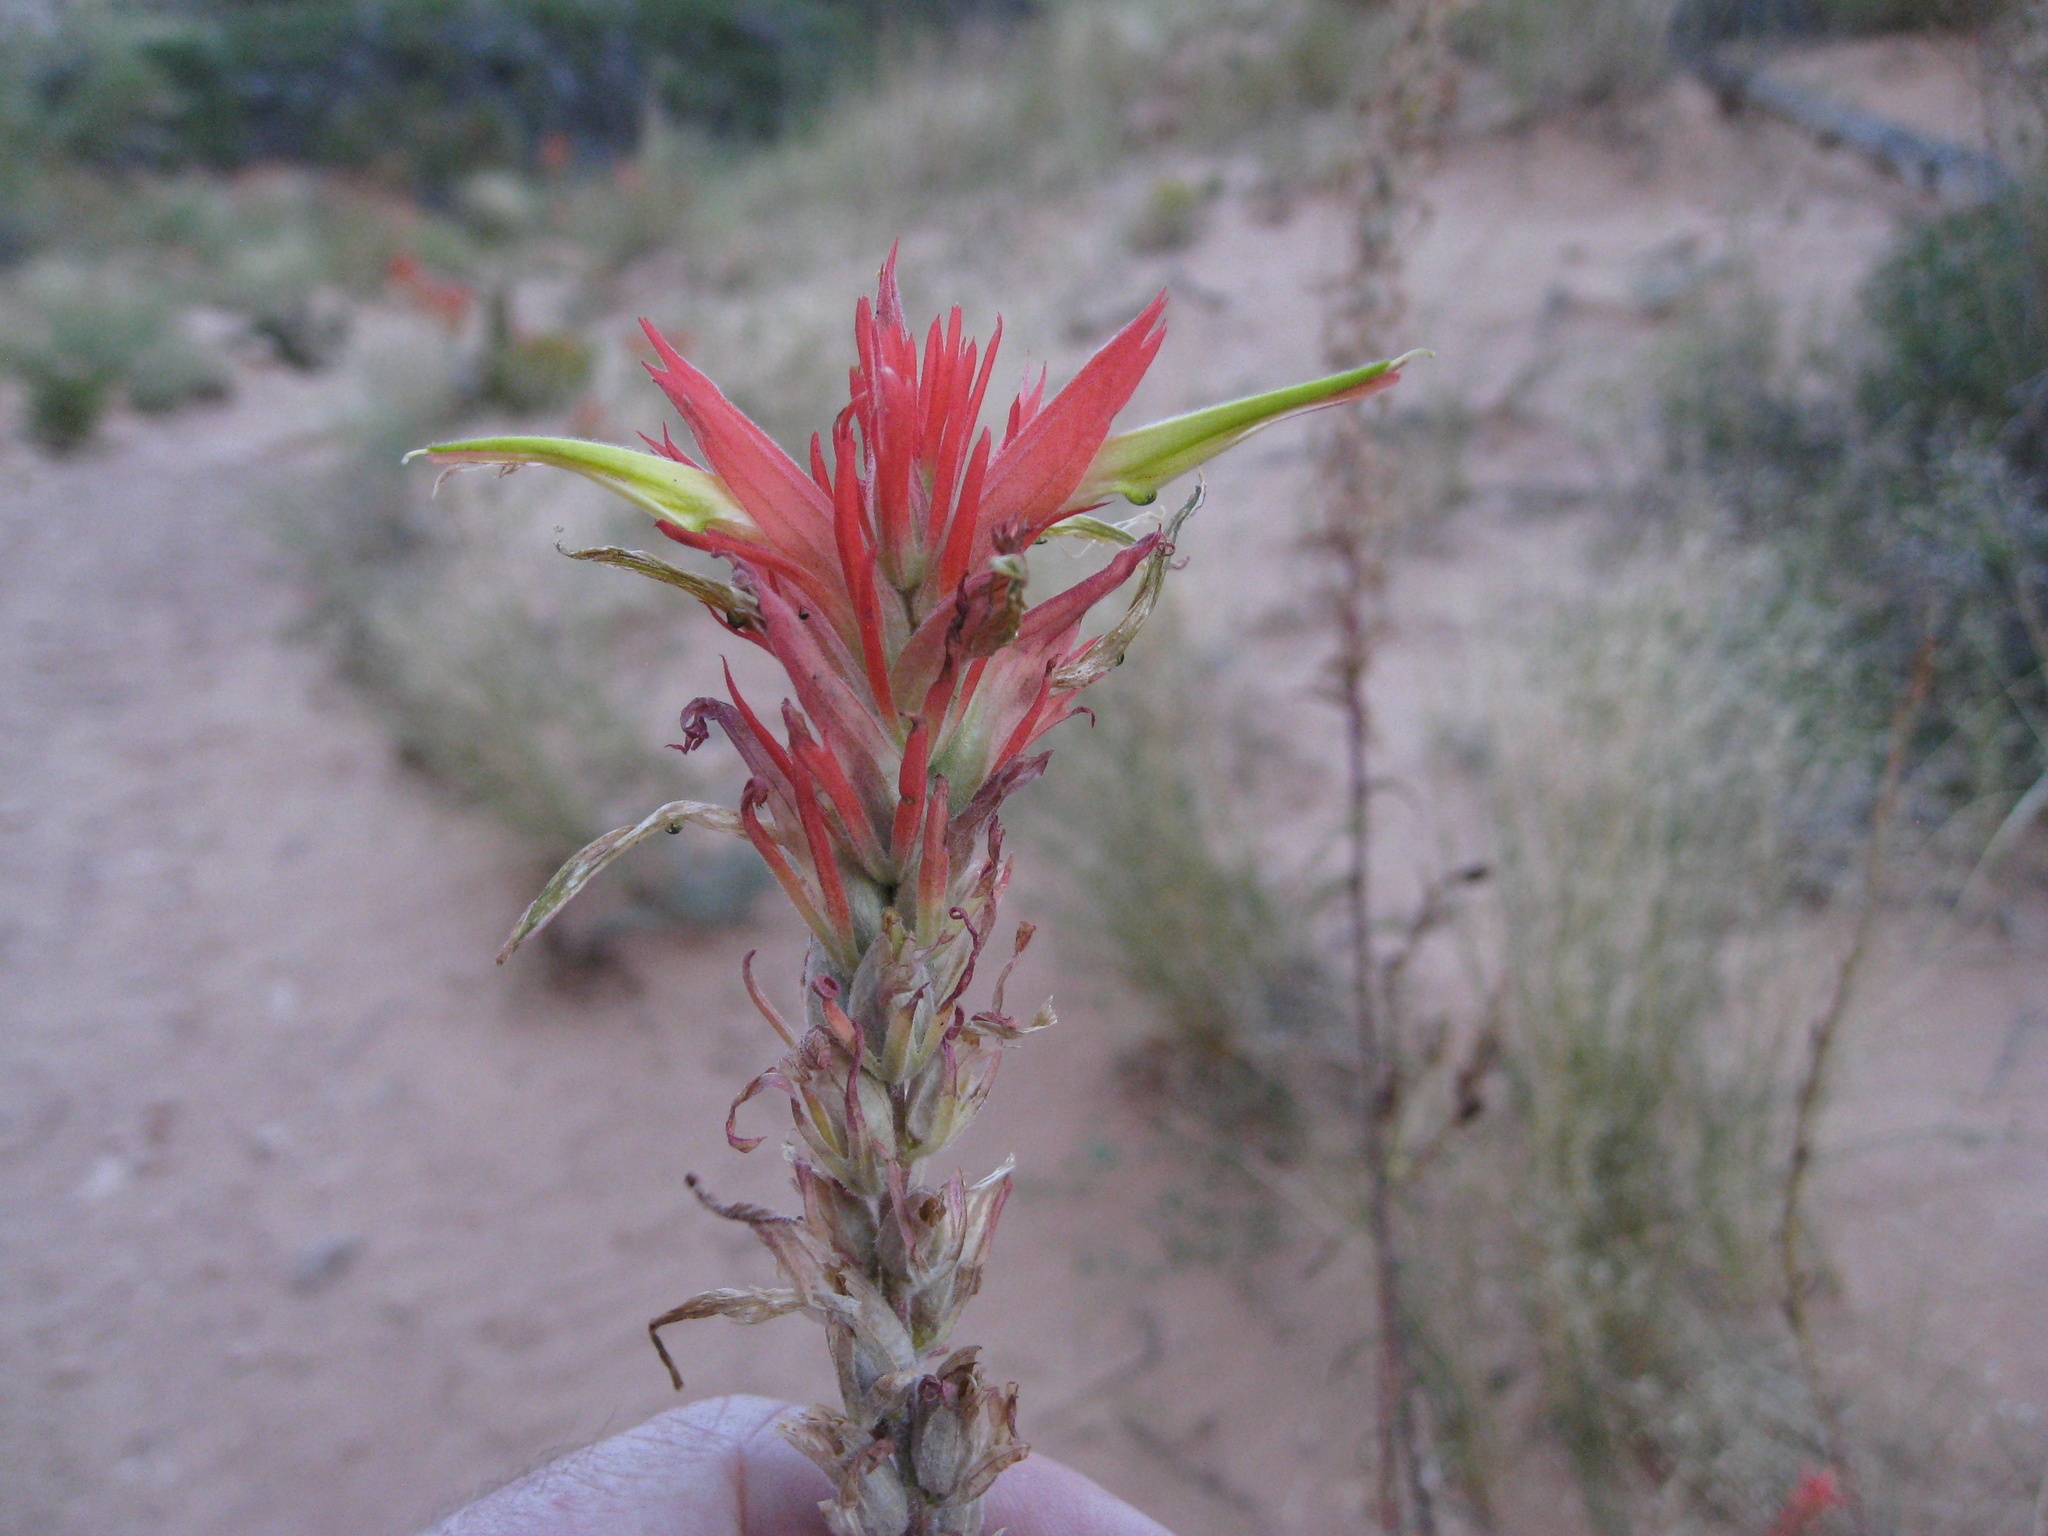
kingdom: Plantae
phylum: Tracheophyta
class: Magnoliopsida
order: Lamiales
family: Orobanchaceae
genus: Castilleja
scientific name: Castilleja linariifolia
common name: Wyoming paintbrush
